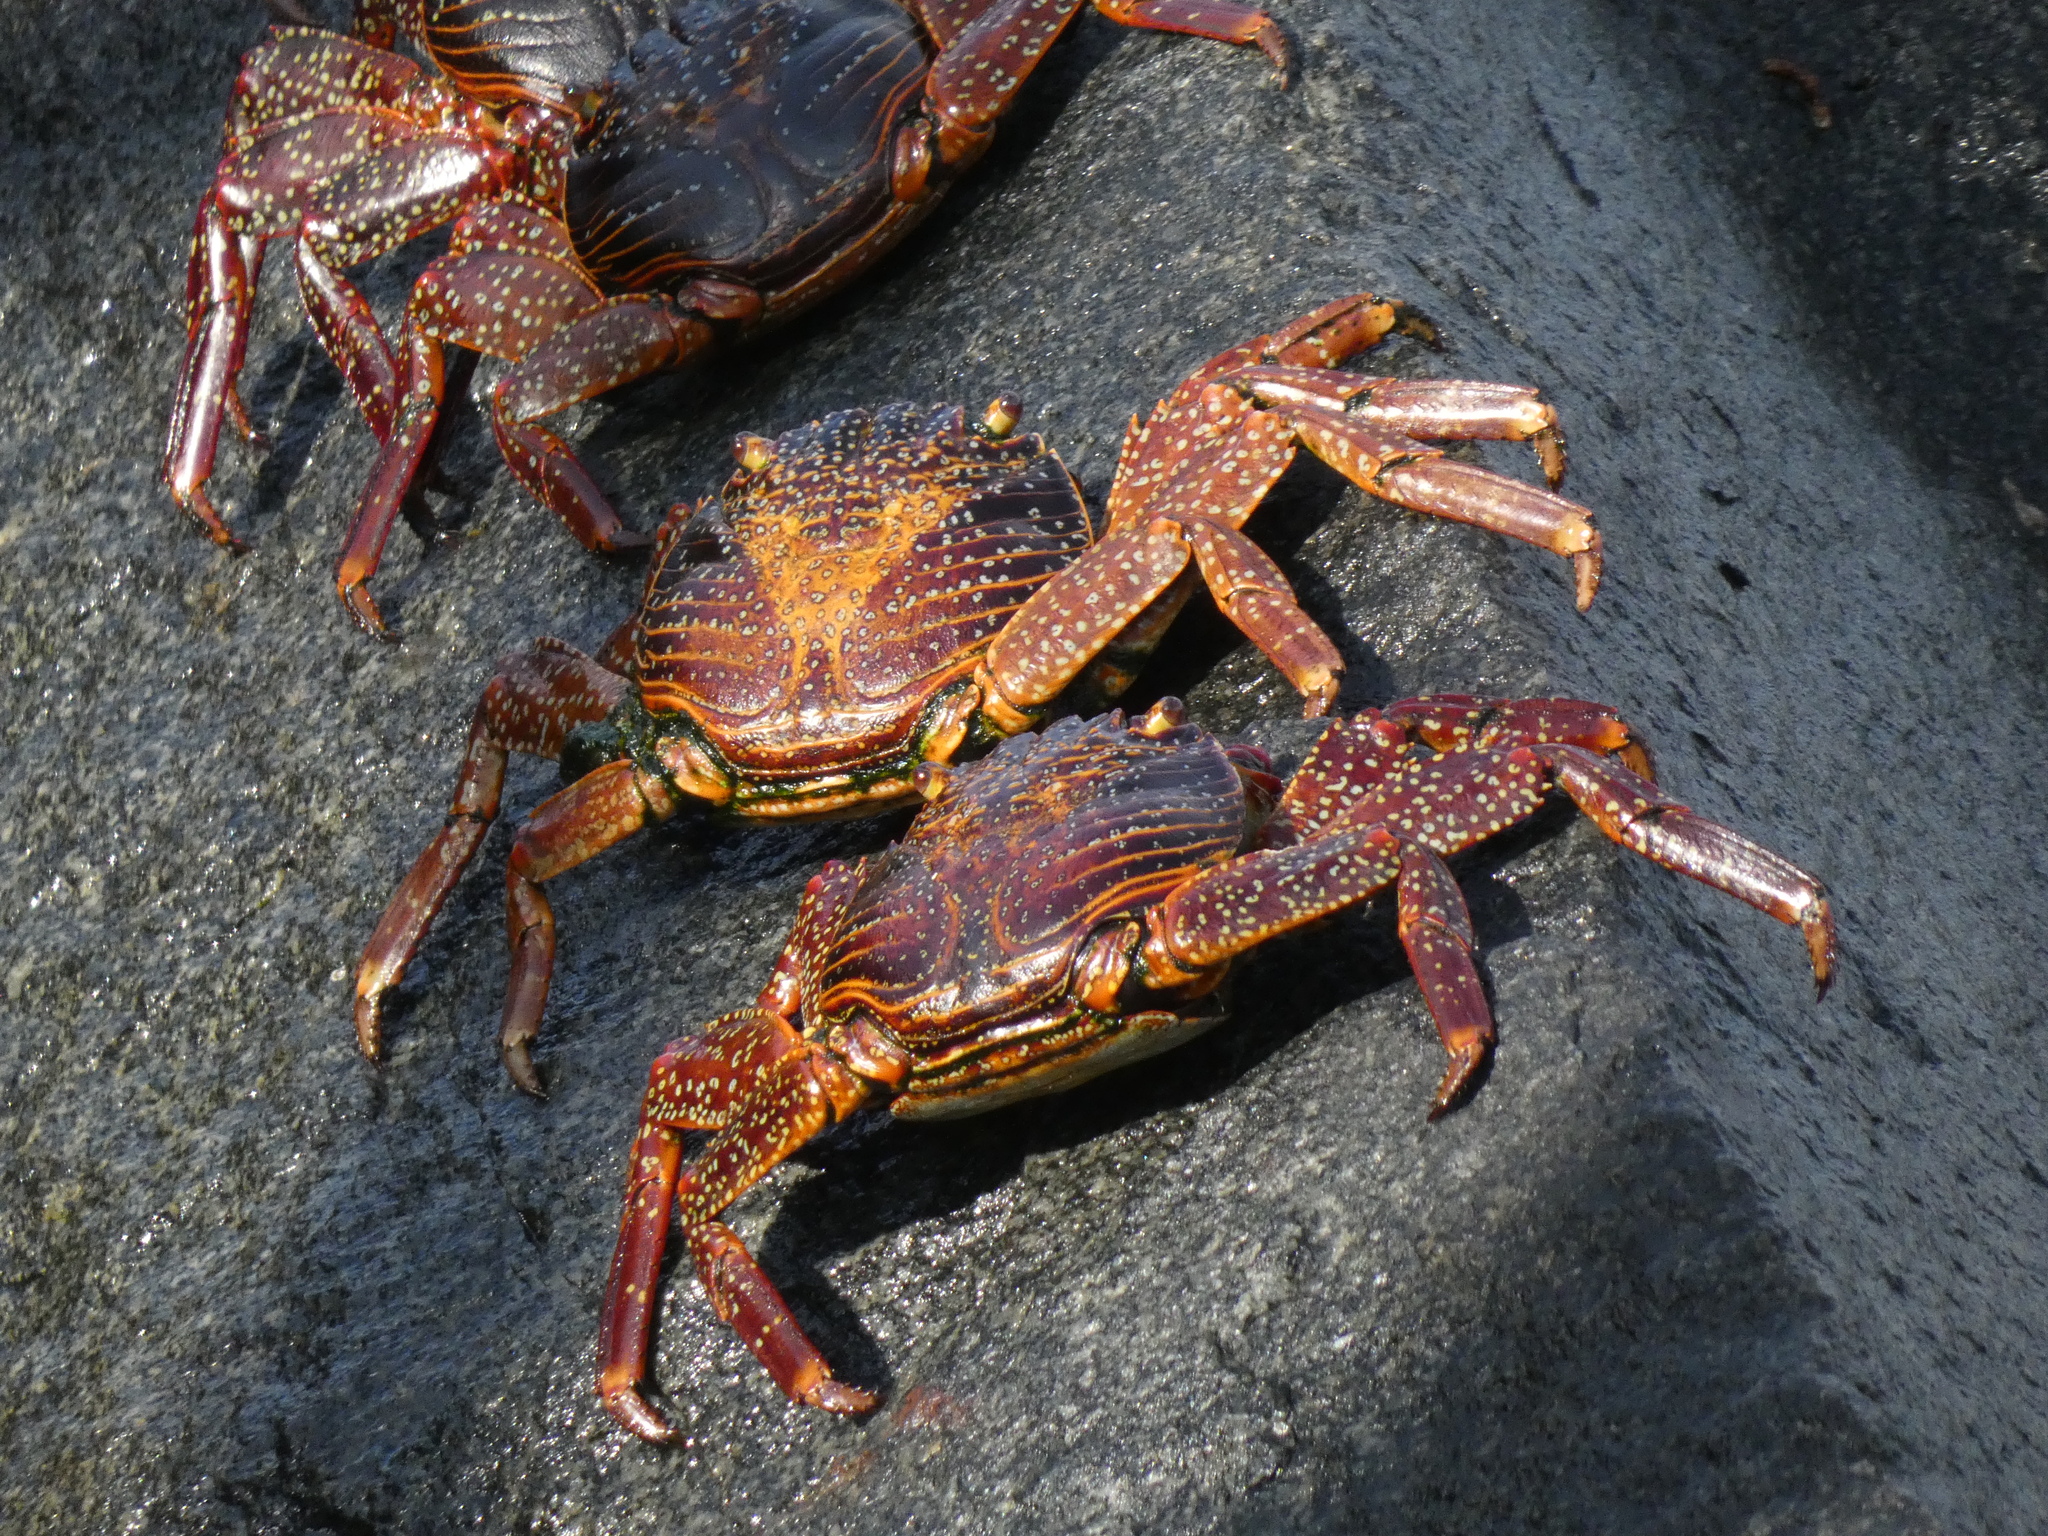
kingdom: Animalia
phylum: Arthropoda
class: Malacostraca
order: Decapoda
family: Grapsidae
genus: Grapsus
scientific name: Grapsus grapsus
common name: Sally lightfoot
